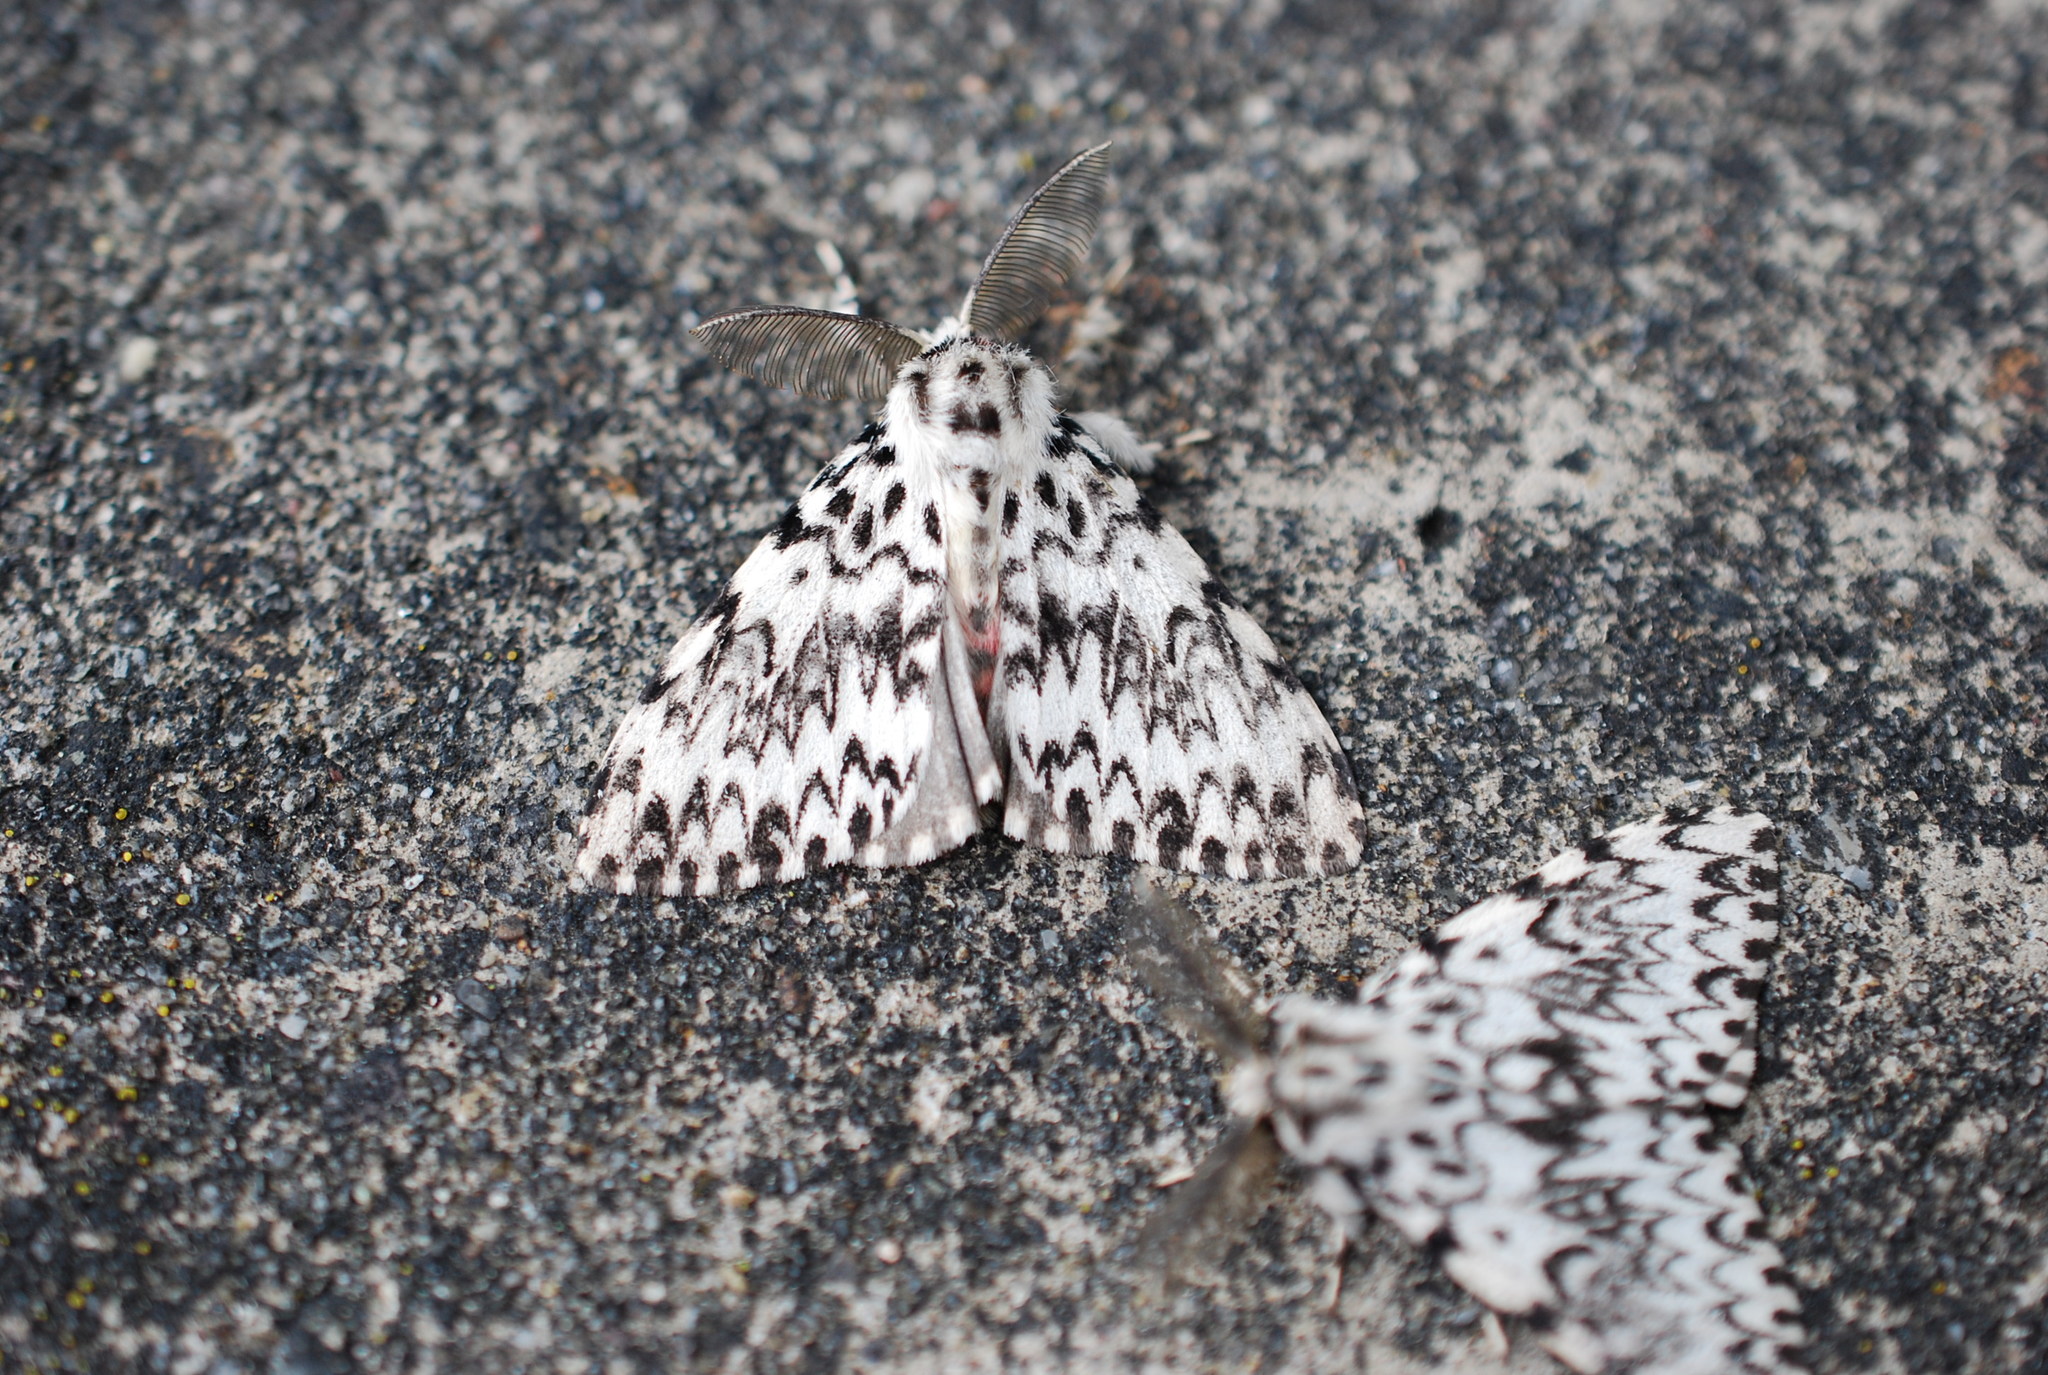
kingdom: Animalia
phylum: Arthropoda
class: Insecta
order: Lepidoptera
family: Erebidae
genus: Lymantria
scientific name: Lymantria monacha
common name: Black arches
